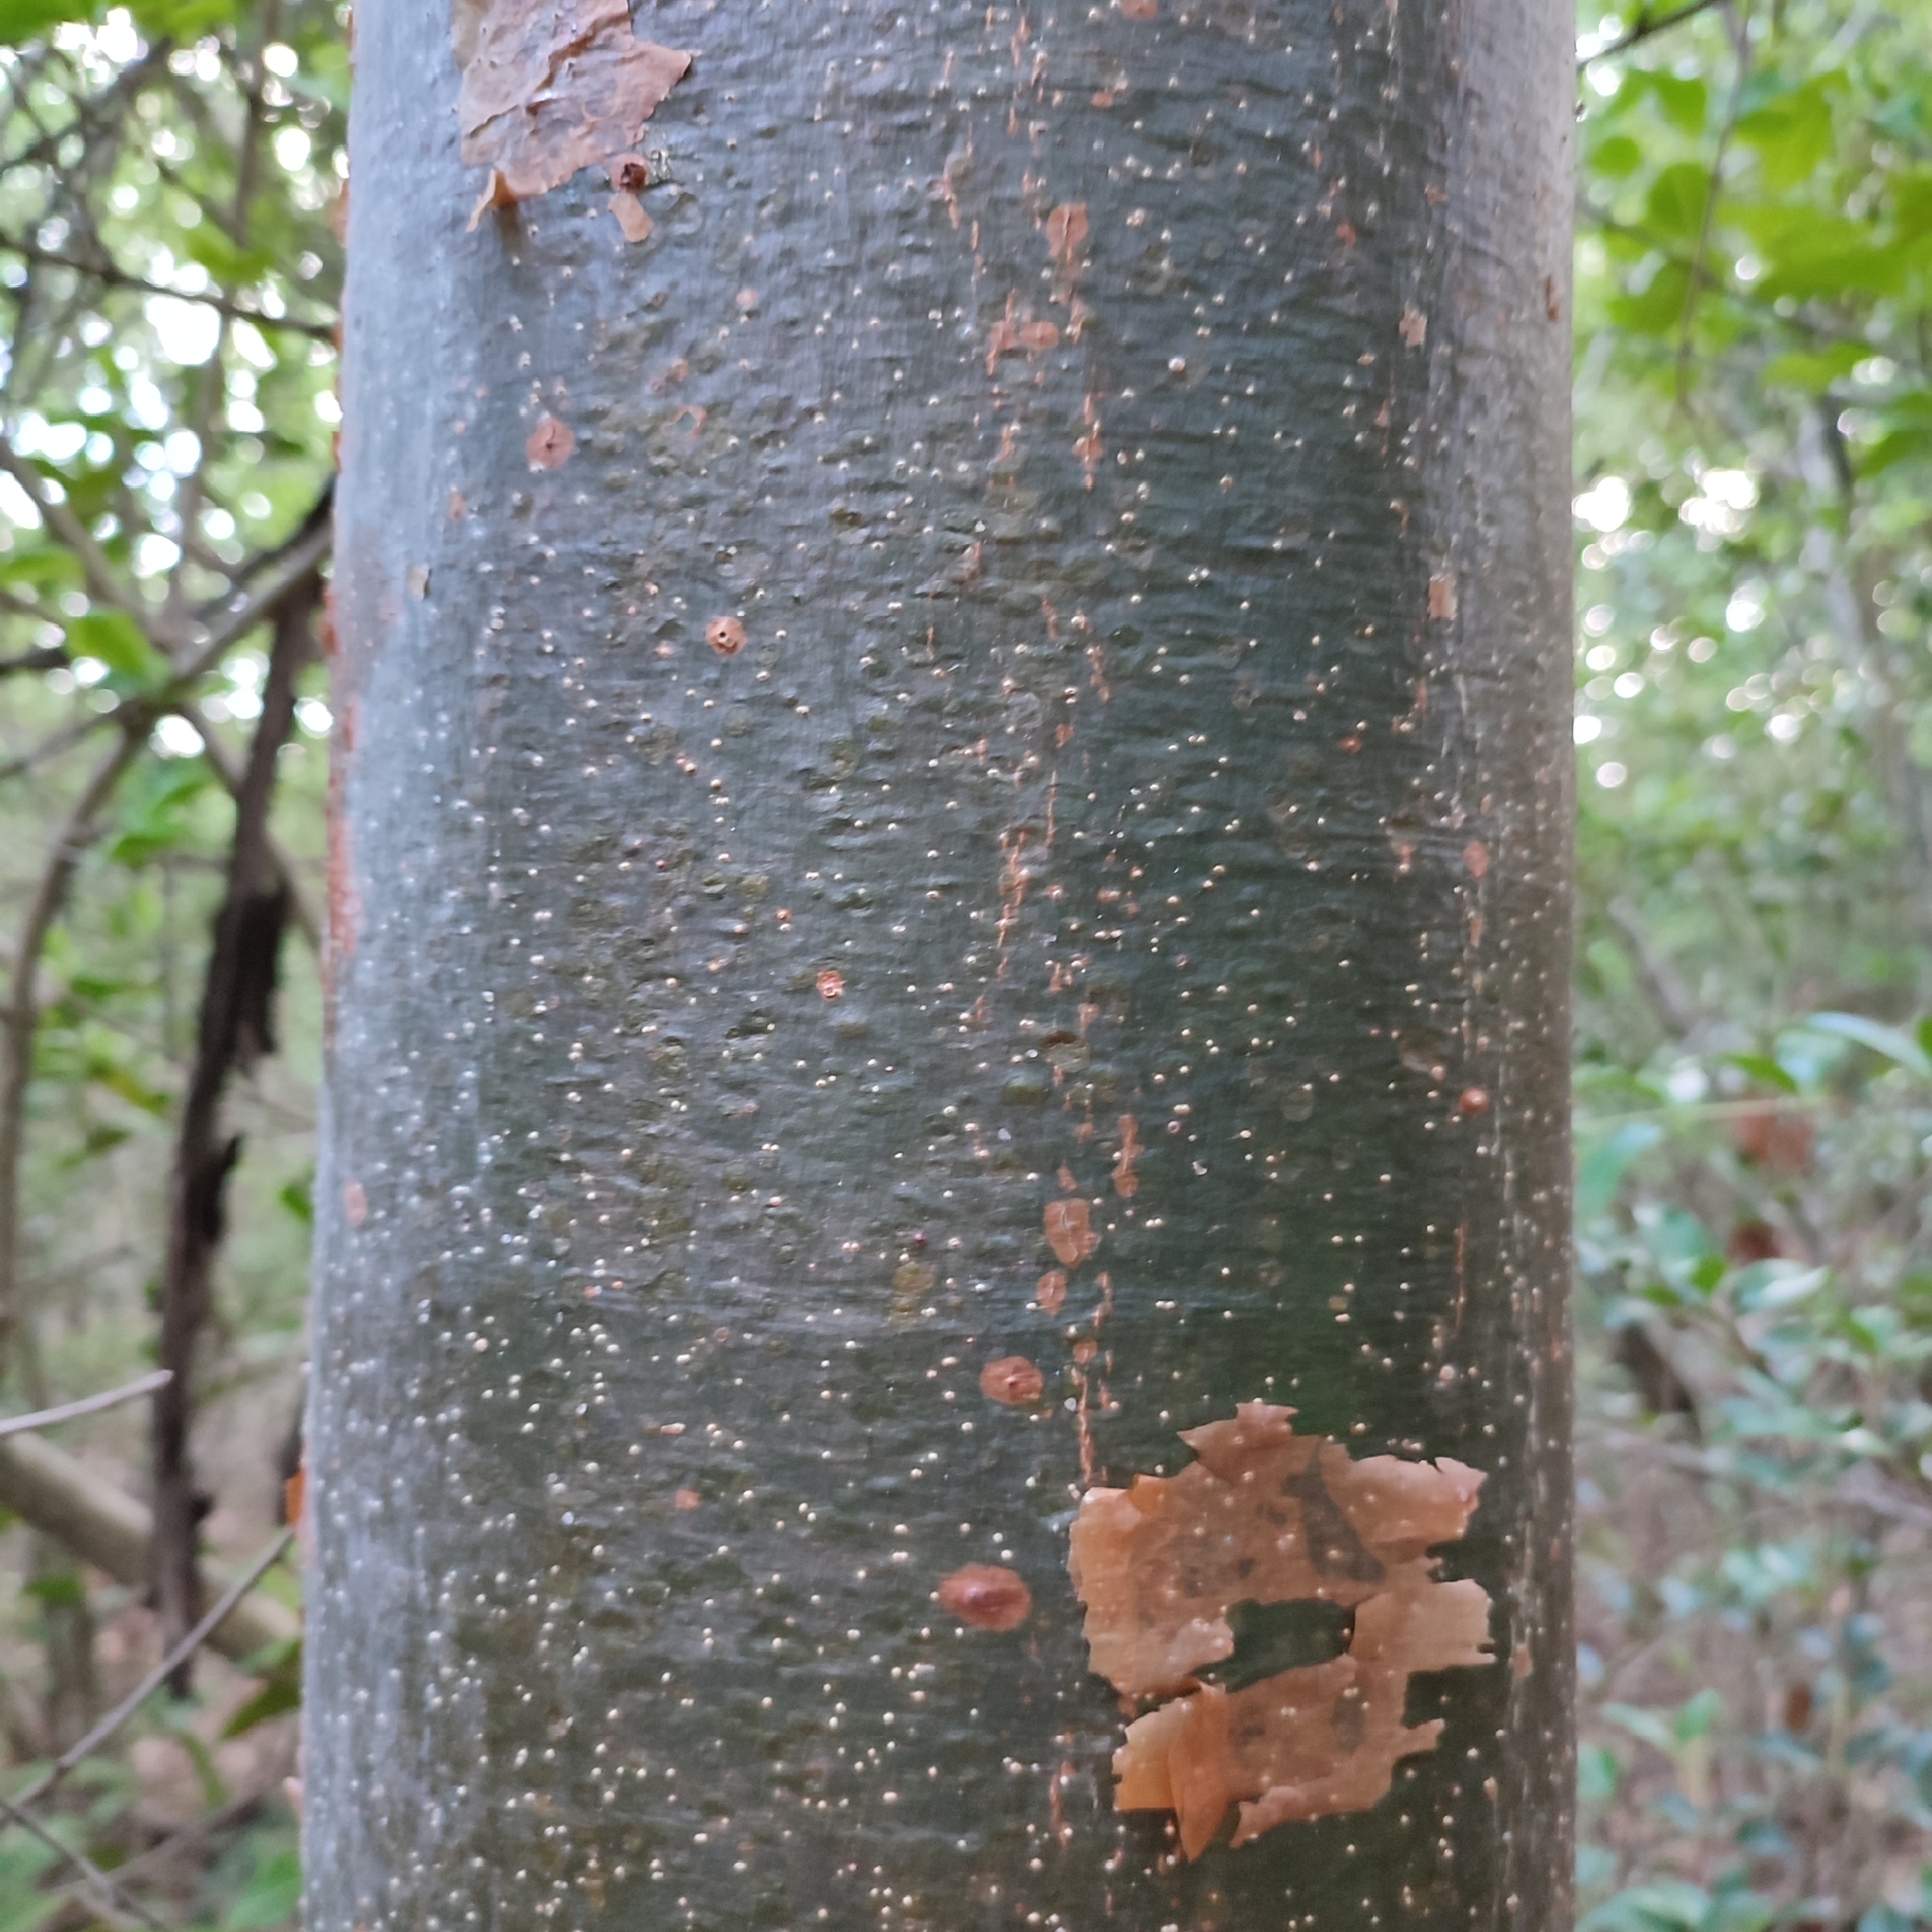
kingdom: Plantae
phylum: Tracheophyta
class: Magnoliopsida
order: Sapindales
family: Burseraceae
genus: Bursera
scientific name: Bursera simaruba
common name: Turpentine tree
